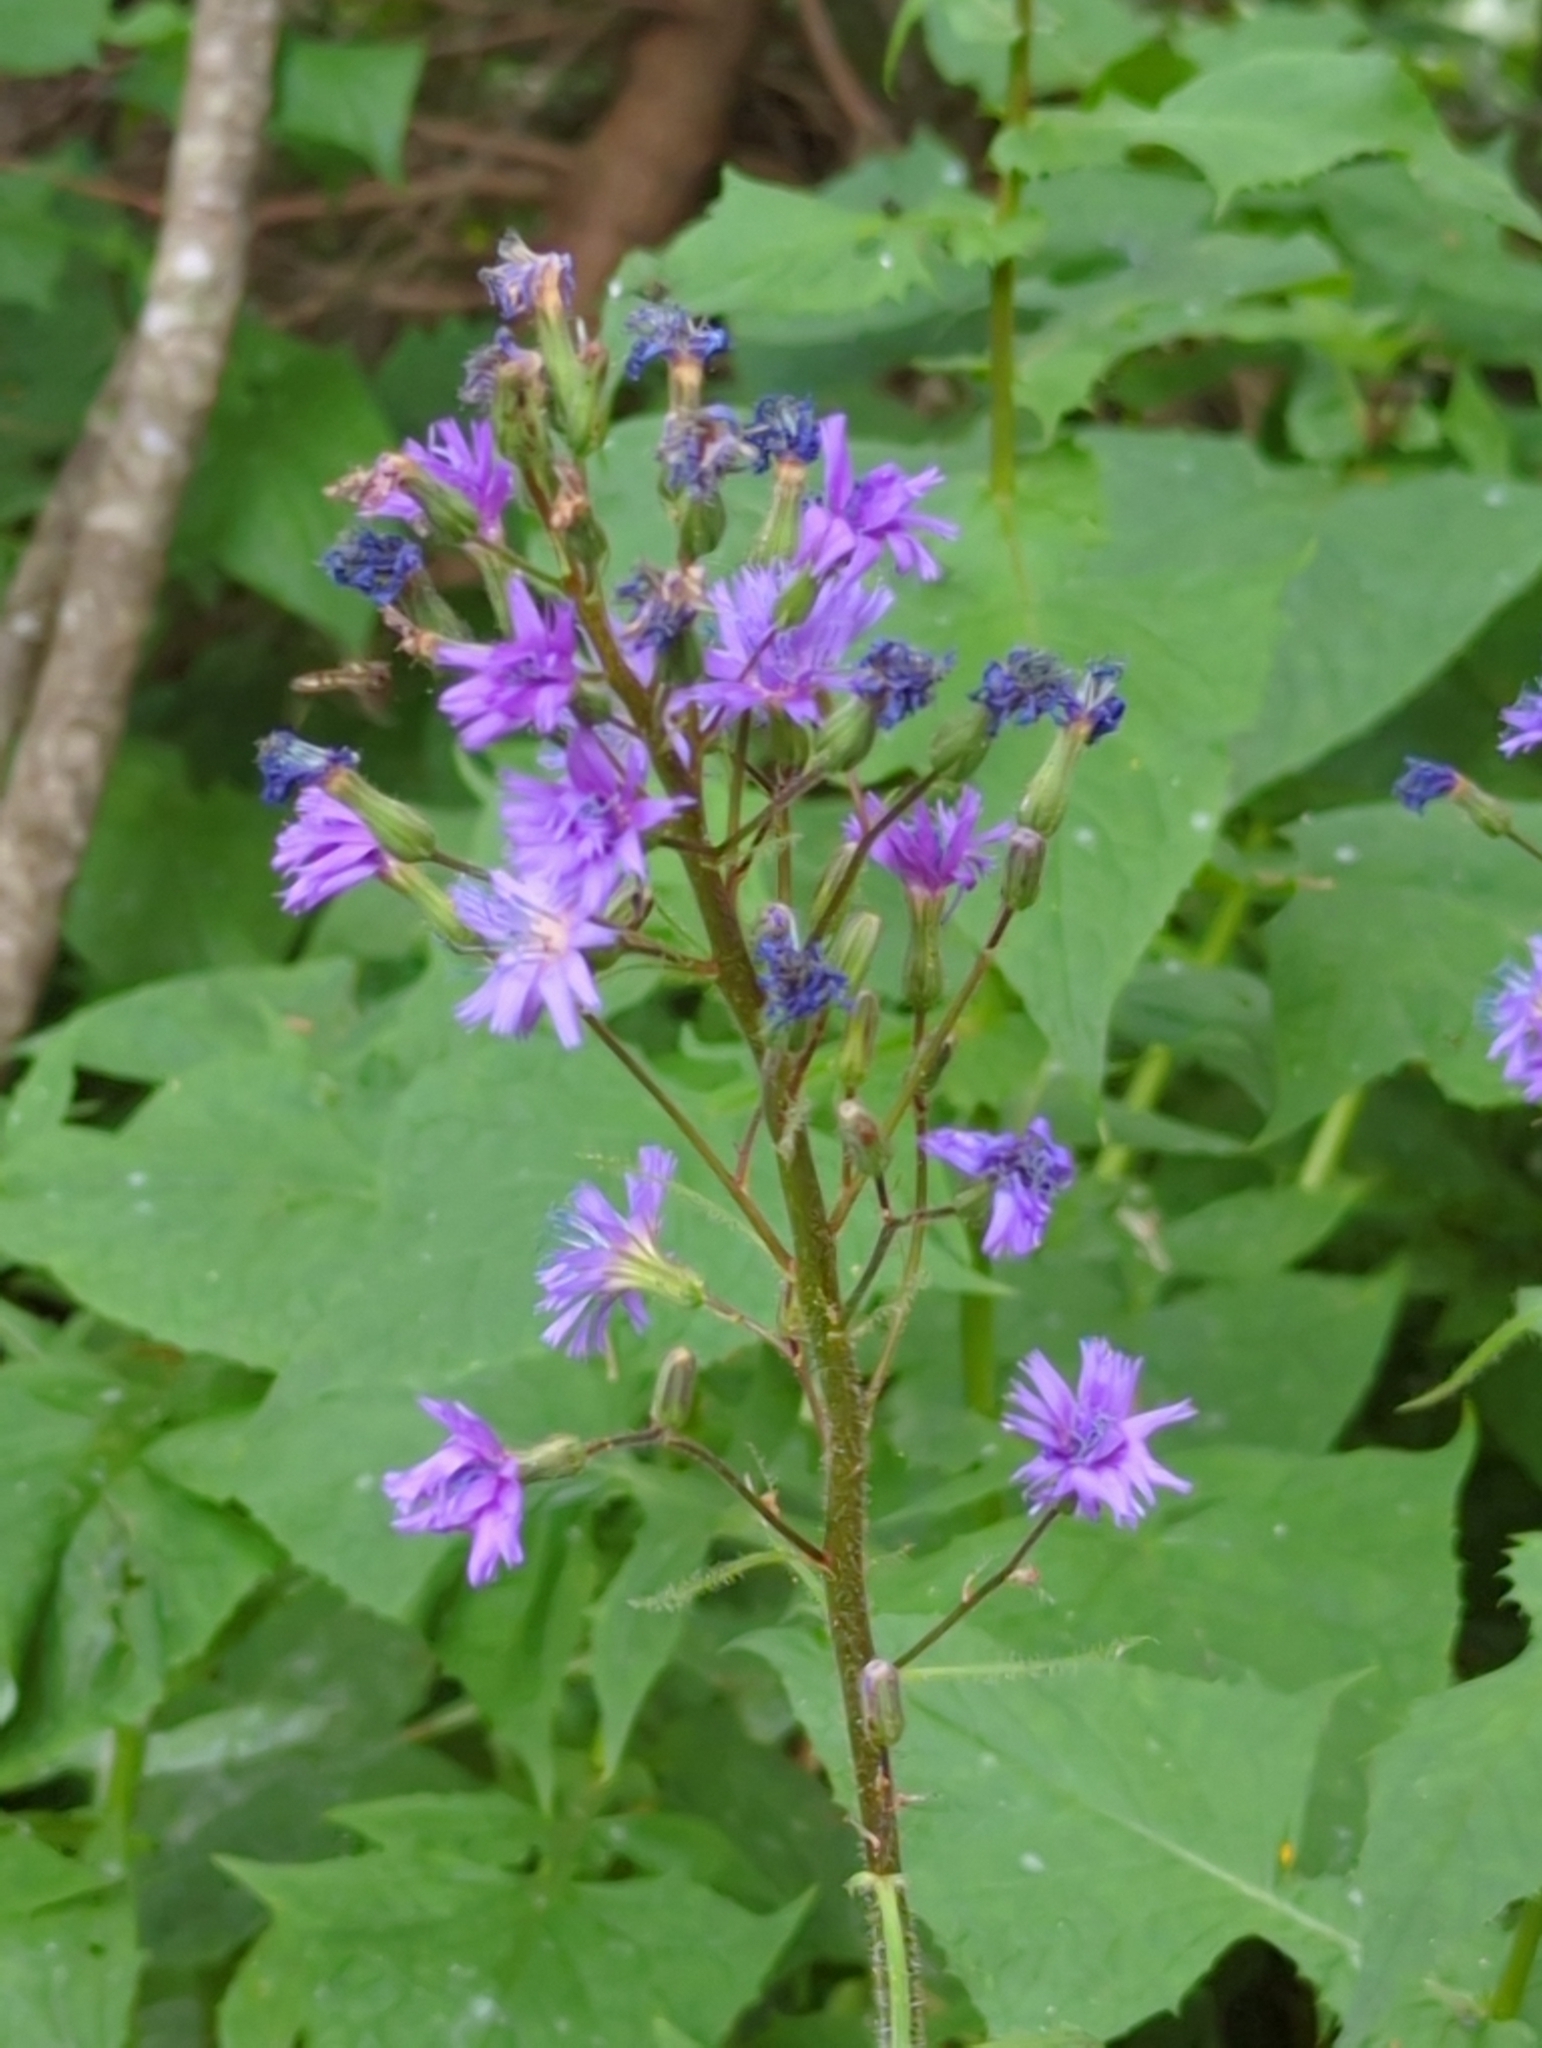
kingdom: Plantae
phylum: Tracheophyta
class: Magnoliopsida
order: Asterales
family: Asteraceae
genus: Cicerbita
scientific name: Cicerbita alpina
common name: Alpine blue-sow-thistle
